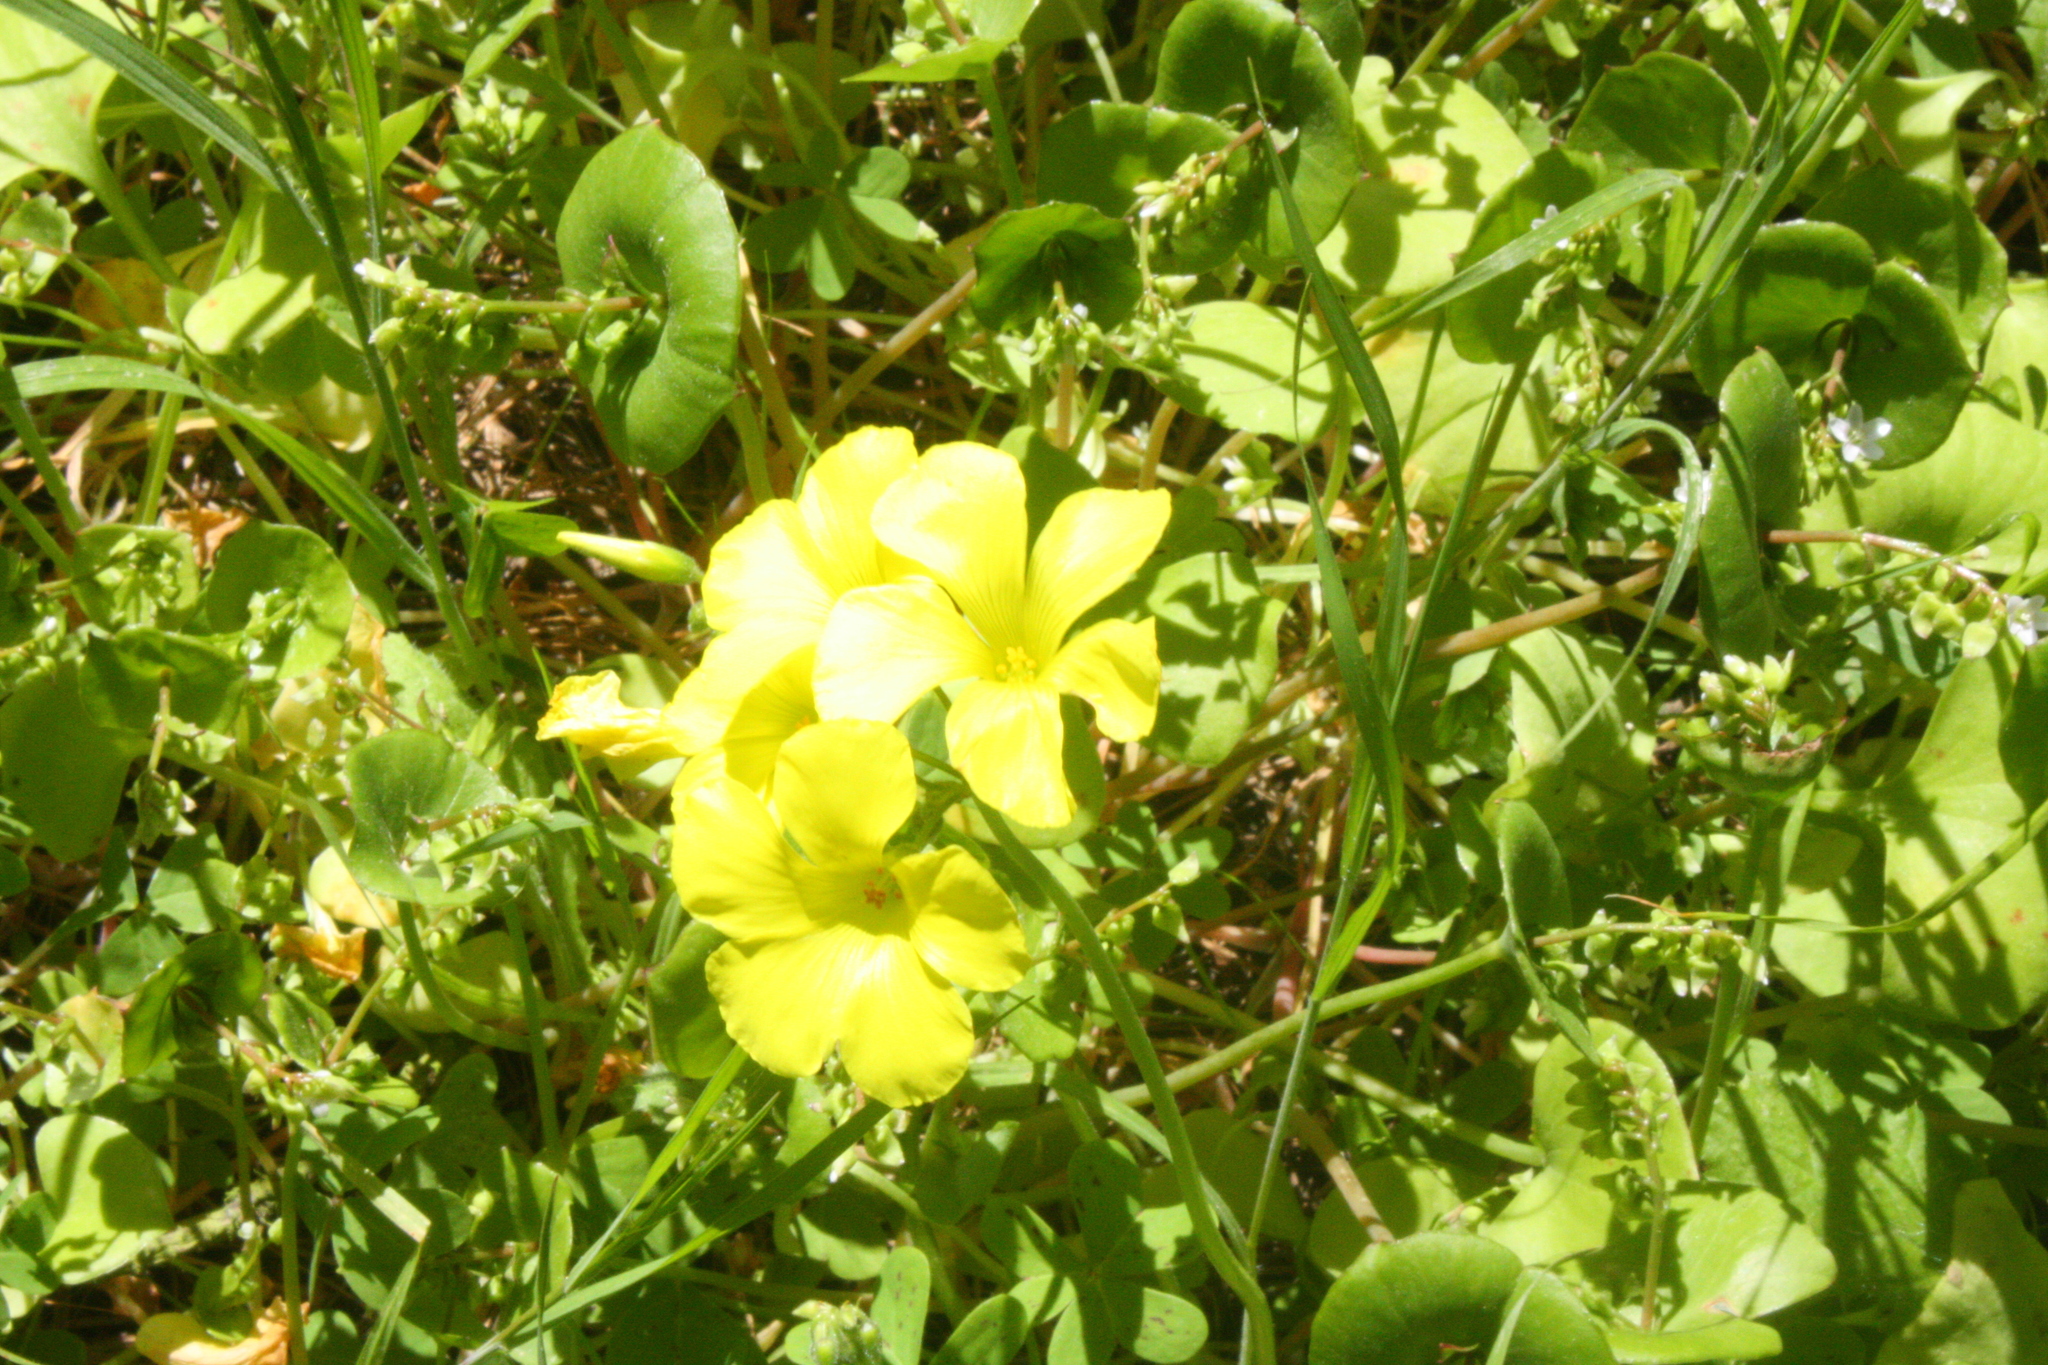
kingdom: Plantae
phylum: Tracheophyta
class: Magnoliopsida
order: Oxalidales
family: Oxalidaceae
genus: Oxalis
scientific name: Oxalis pes-caprae
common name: Bermuda-buttercup
